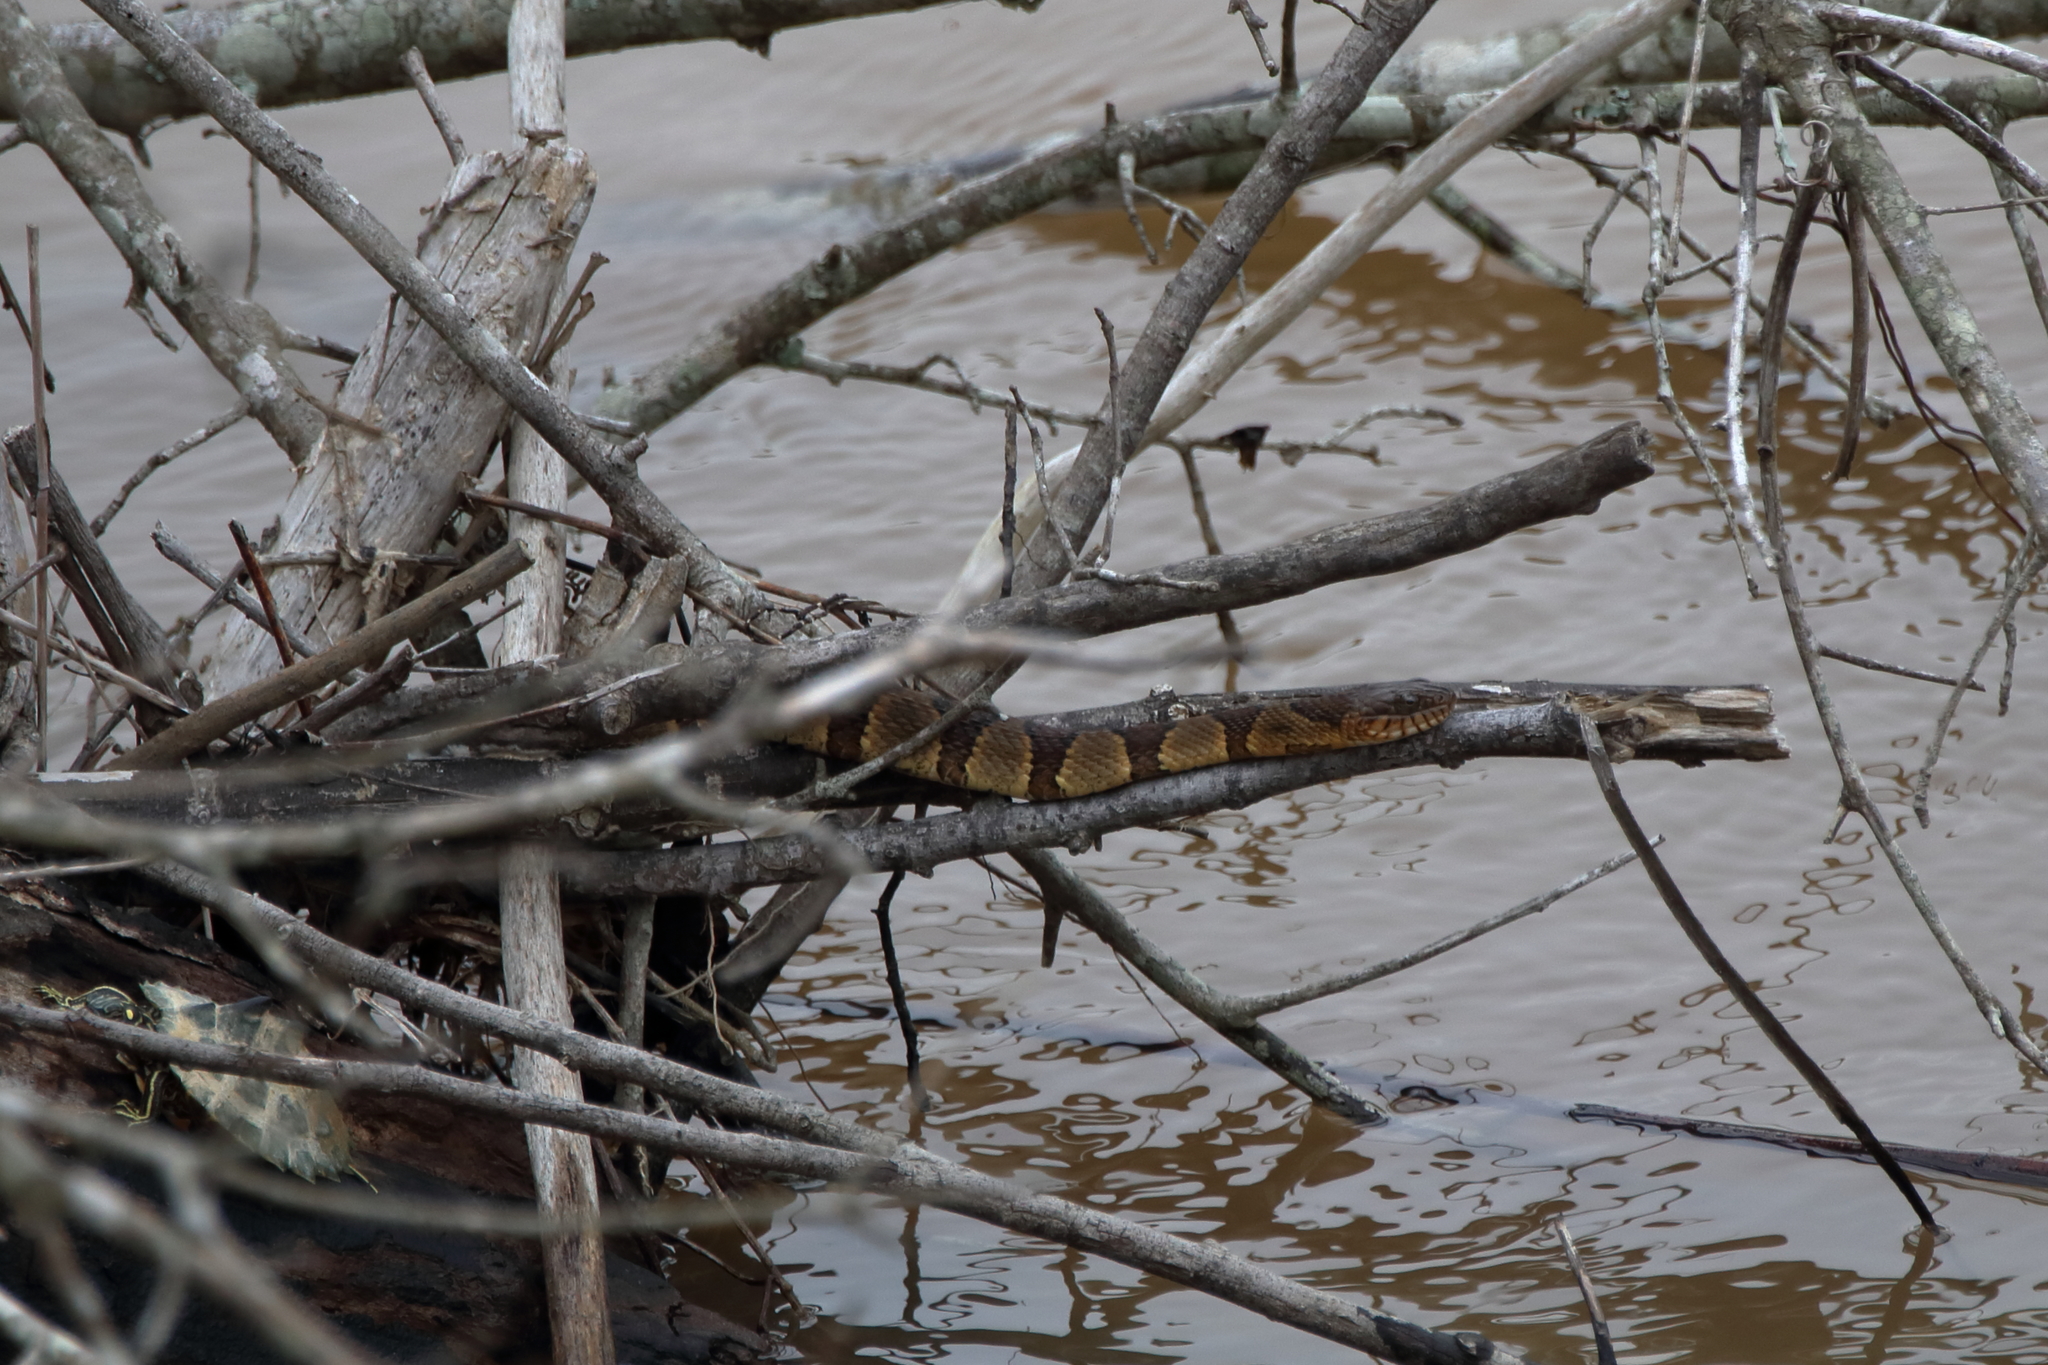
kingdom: Animalia
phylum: Chordata
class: Squamata
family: Colubridae
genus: Nerodia
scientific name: Nerodia sipedon
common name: Northern water snake
